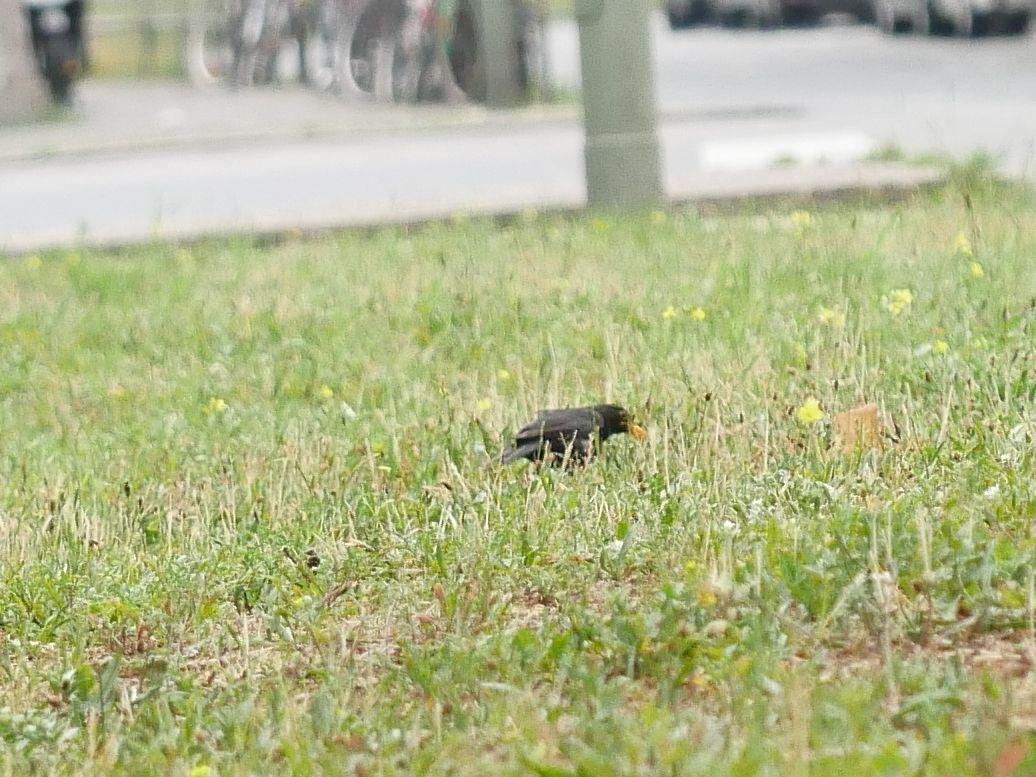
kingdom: Animalia
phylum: Chordata
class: Aves
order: Passeriformes
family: Turdidae
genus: Turdus
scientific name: Turdus merula
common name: Common blackbird
